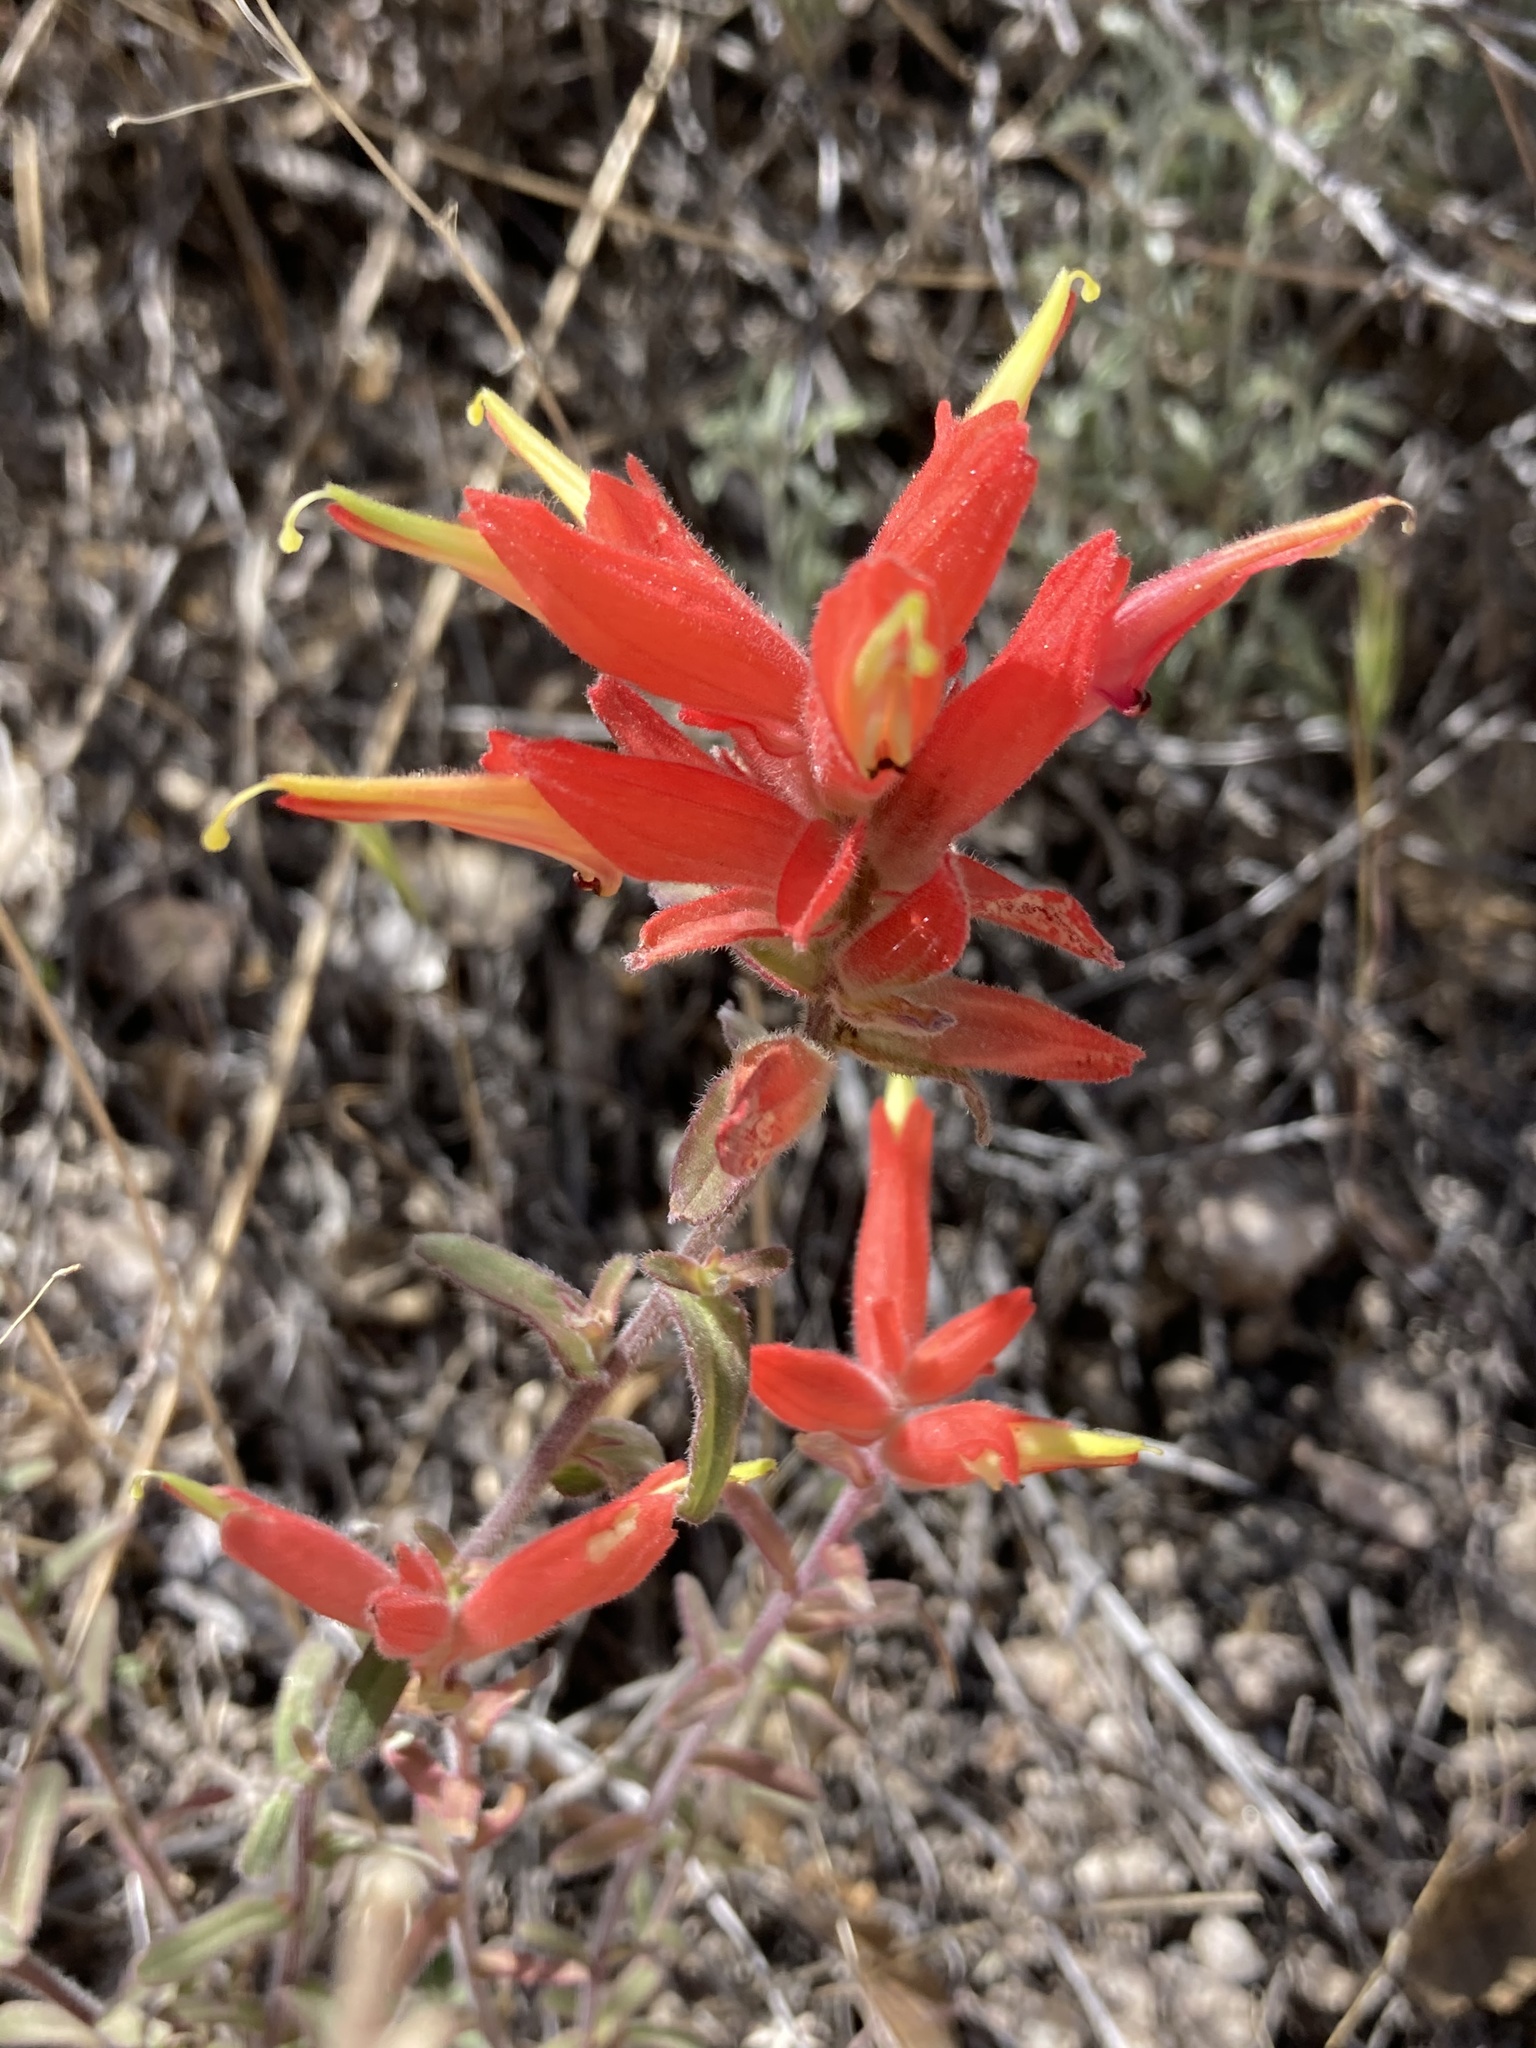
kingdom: Plantae
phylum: Tracheophyta
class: Magnoliopsida
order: Lamiales
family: Orobanchaceae
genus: Castilleja
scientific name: Castilleja tenuiflora
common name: Santa catalina indian paintbrush
